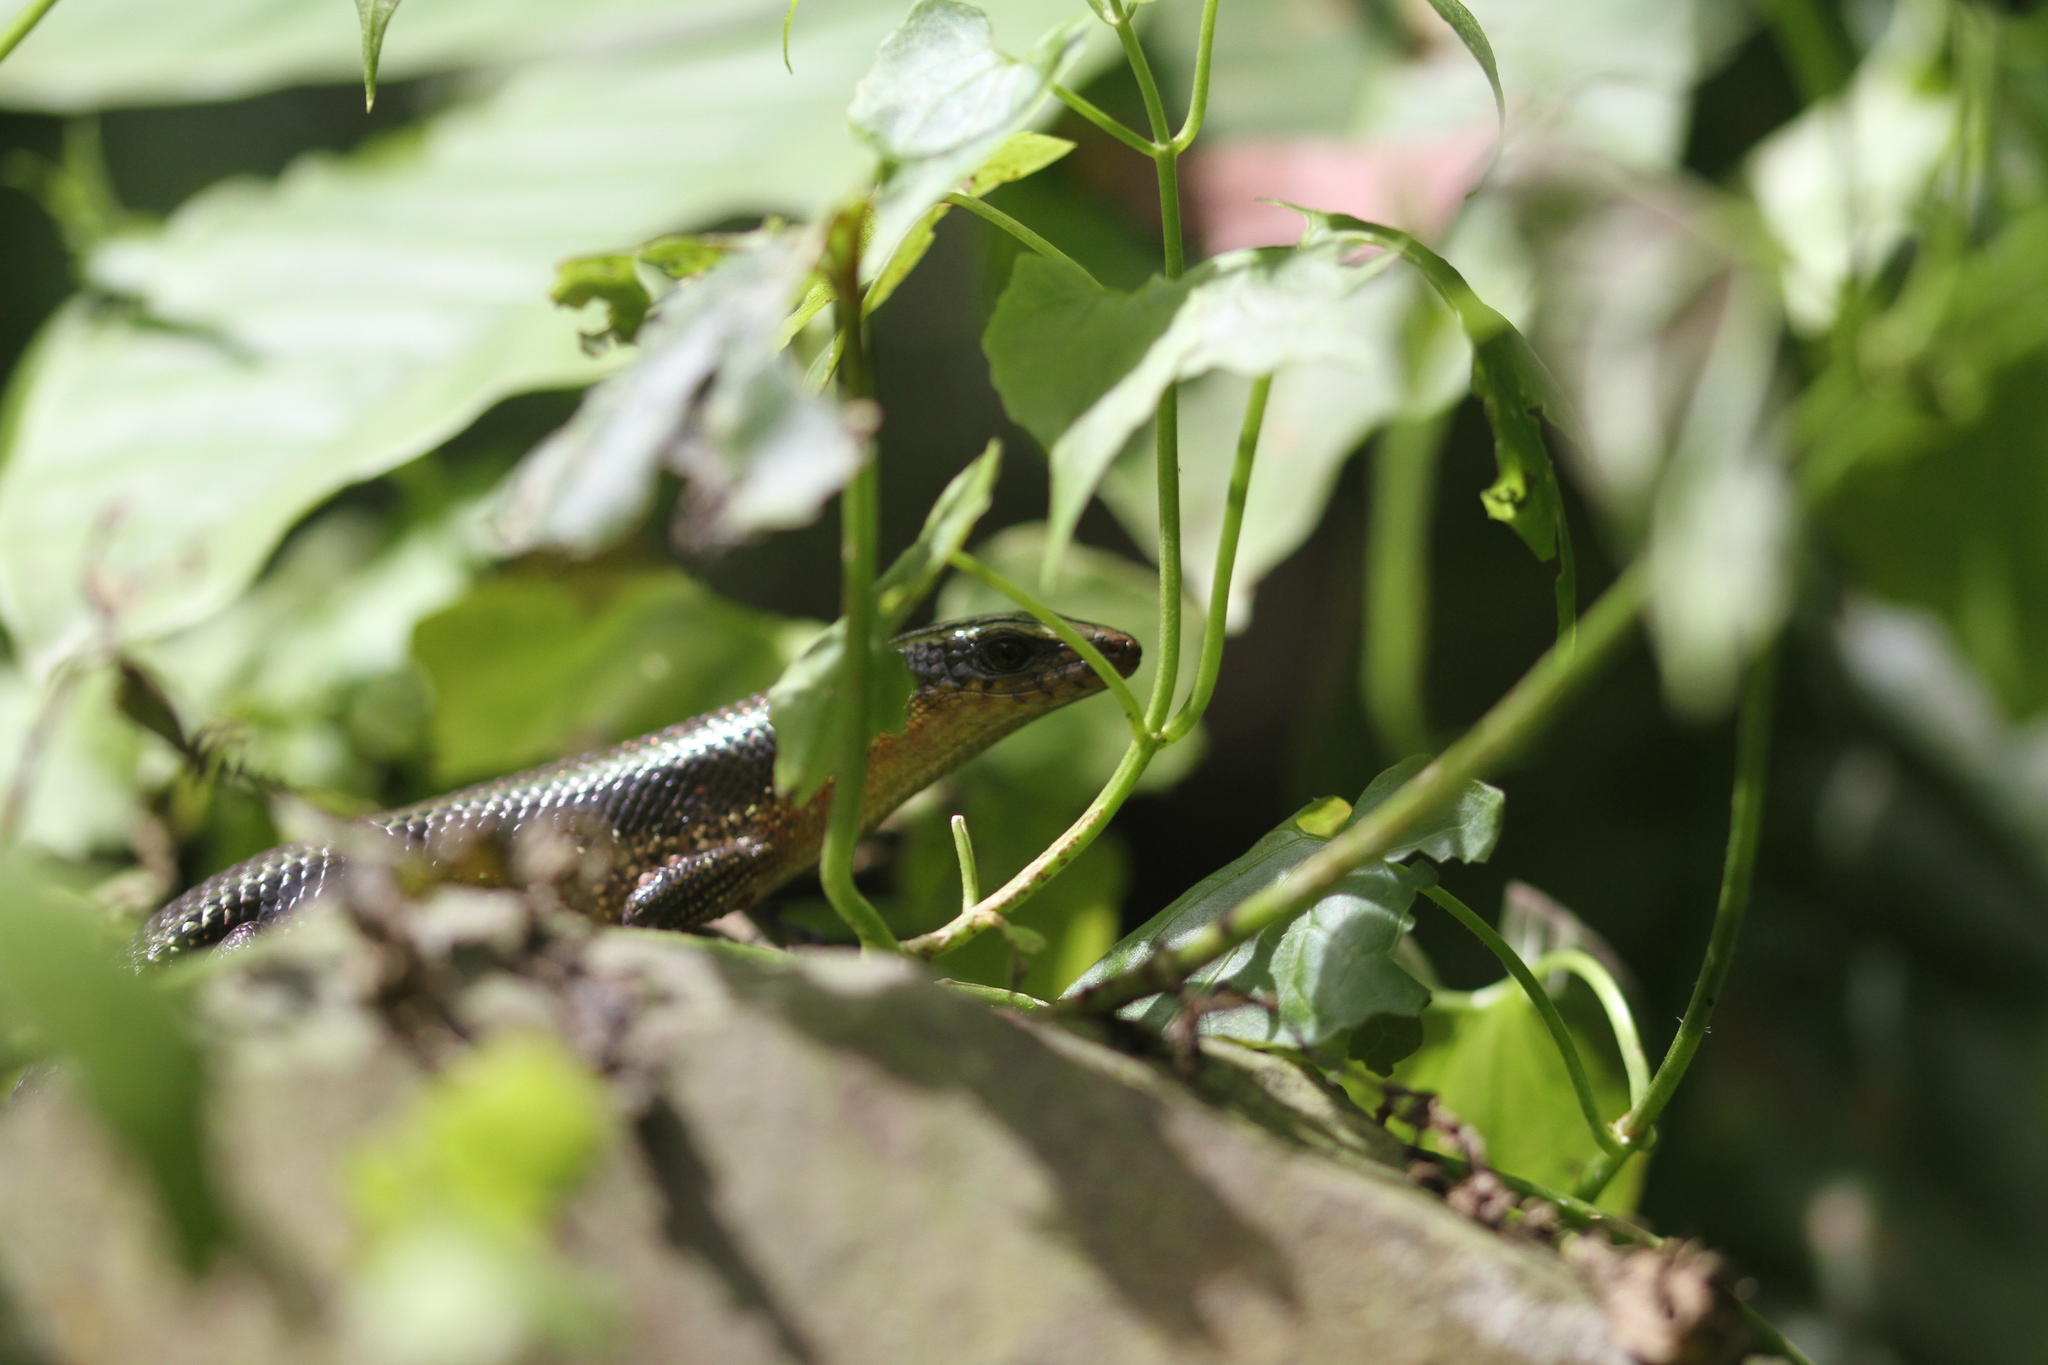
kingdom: Animalia
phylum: Chordata
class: Squamata
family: Scincidae
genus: Eutropis
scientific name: Eutropis multifasciata
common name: Common mabuya
